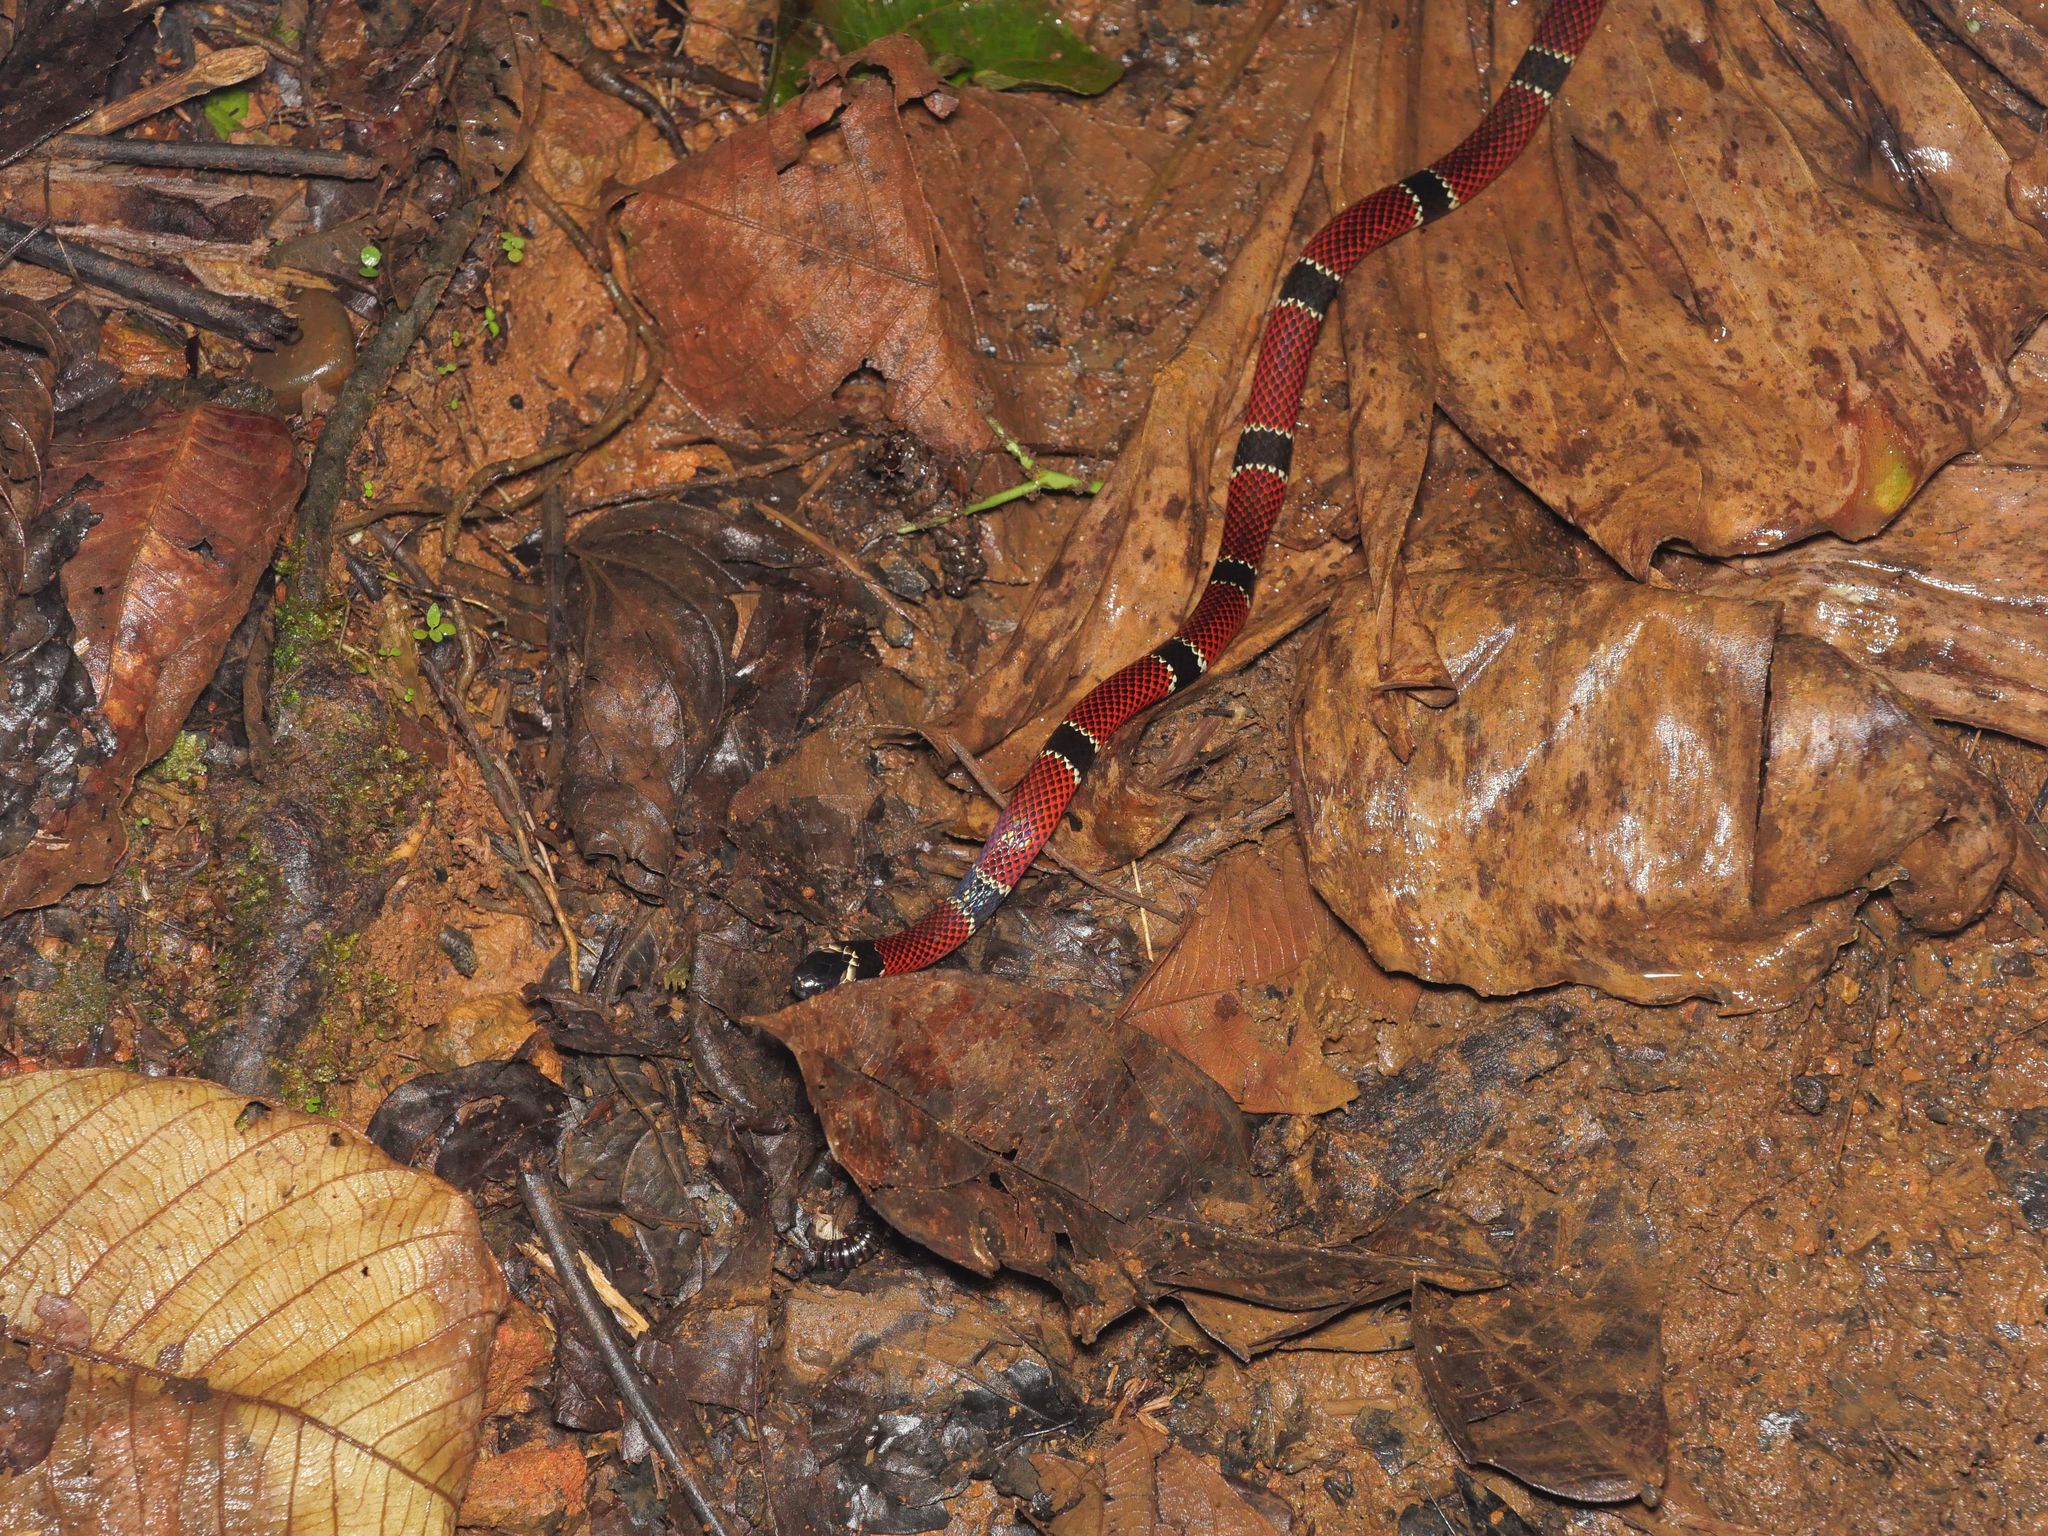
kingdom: Animalia
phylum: Chordata
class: Squamata
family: Elapidae
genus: Micrurus
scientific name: Micrurus dumerilii
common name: Antioquian coral snake [antioquiensis]
